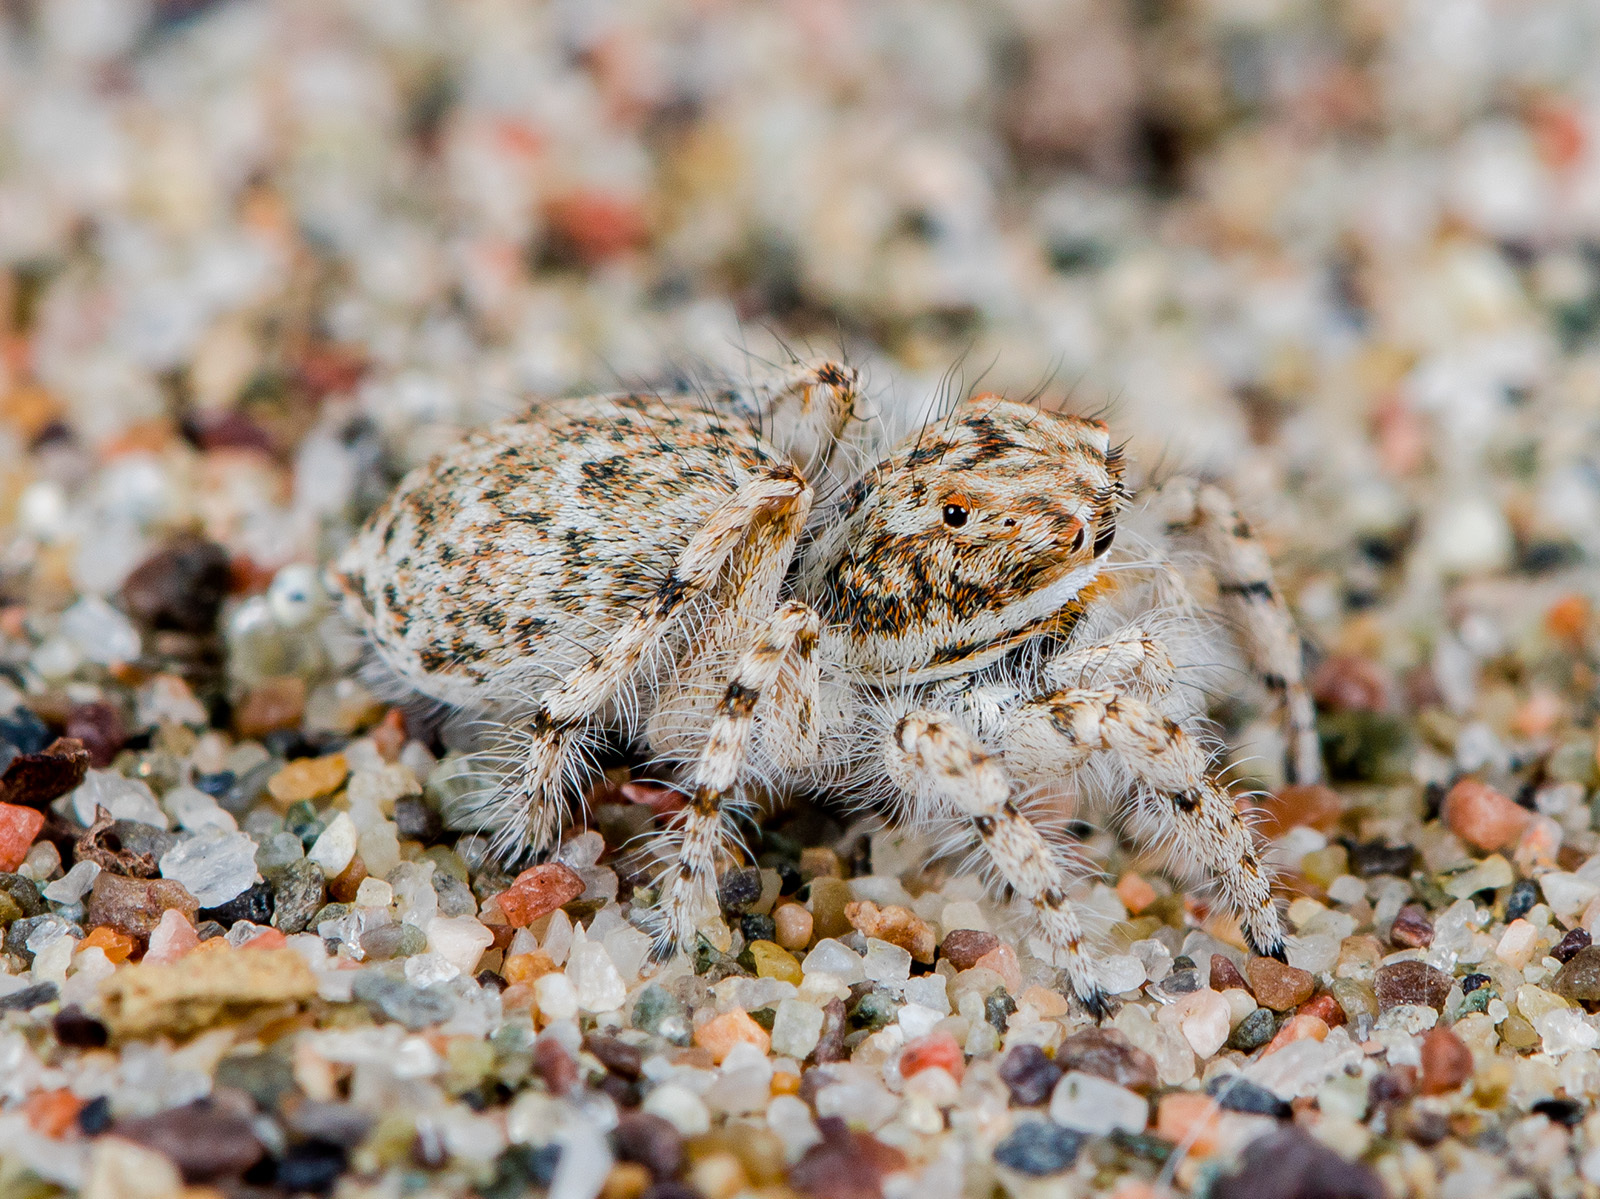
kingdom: Animalia
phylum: Arthropoda
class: Arachnida
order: Araneae
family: Salticidae
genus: Yllenus
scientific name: Yllenus uiguricus
